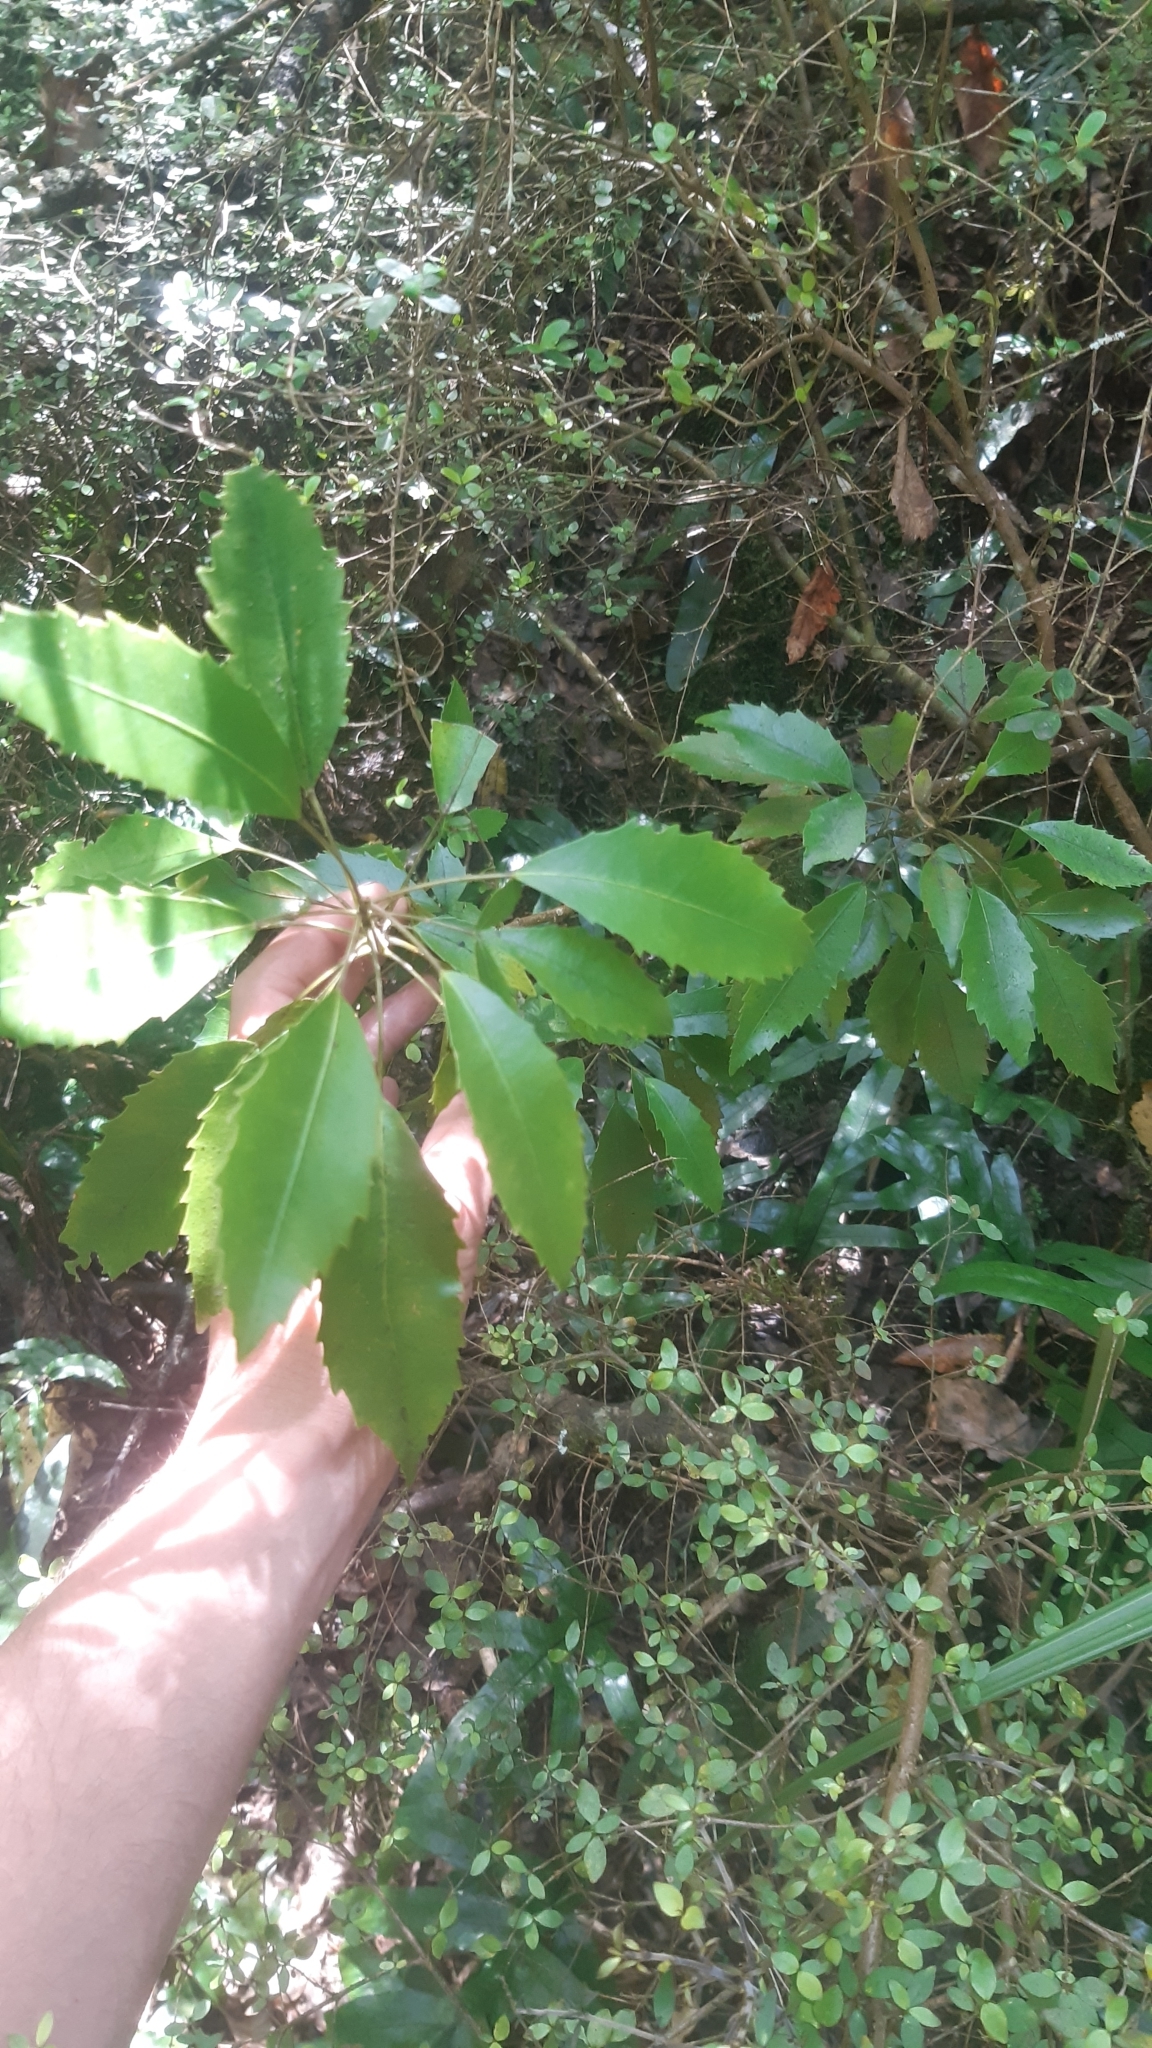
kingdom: Plantae
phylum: Tracheophyta
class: Magnoliopsida
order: Apiales
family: Araliaceae
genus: Raukaua
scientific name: Raukaua simplex
